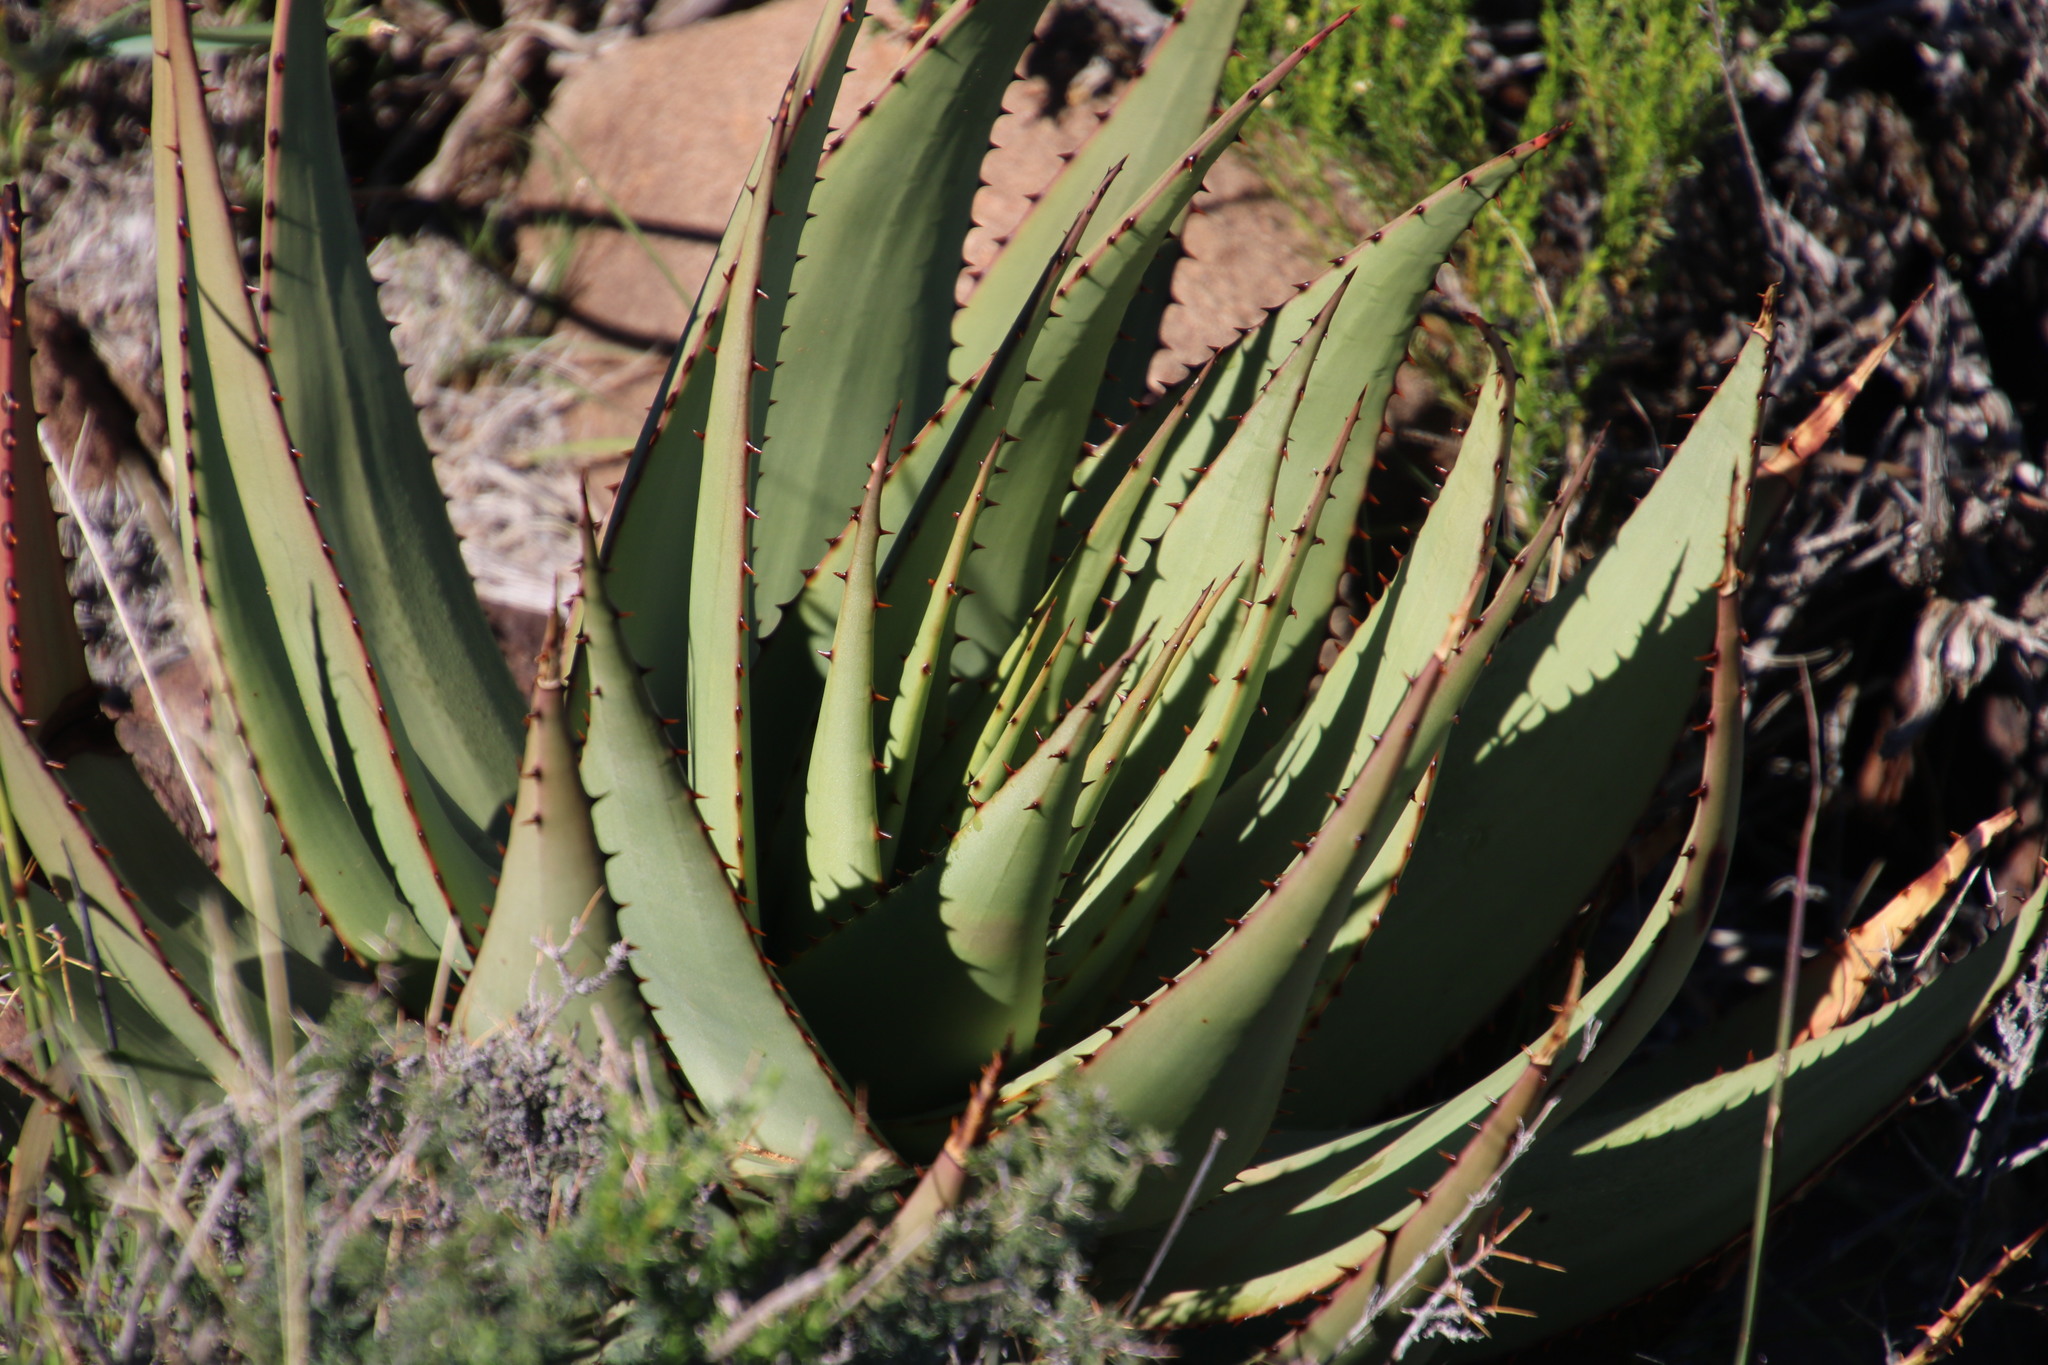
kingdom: Plantae
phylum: Tracheophyta
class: Liliopsida
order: Asparagales
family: Asphodelaceae
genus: Aloe
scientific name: Aloe broomii
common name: Berg alwyn
